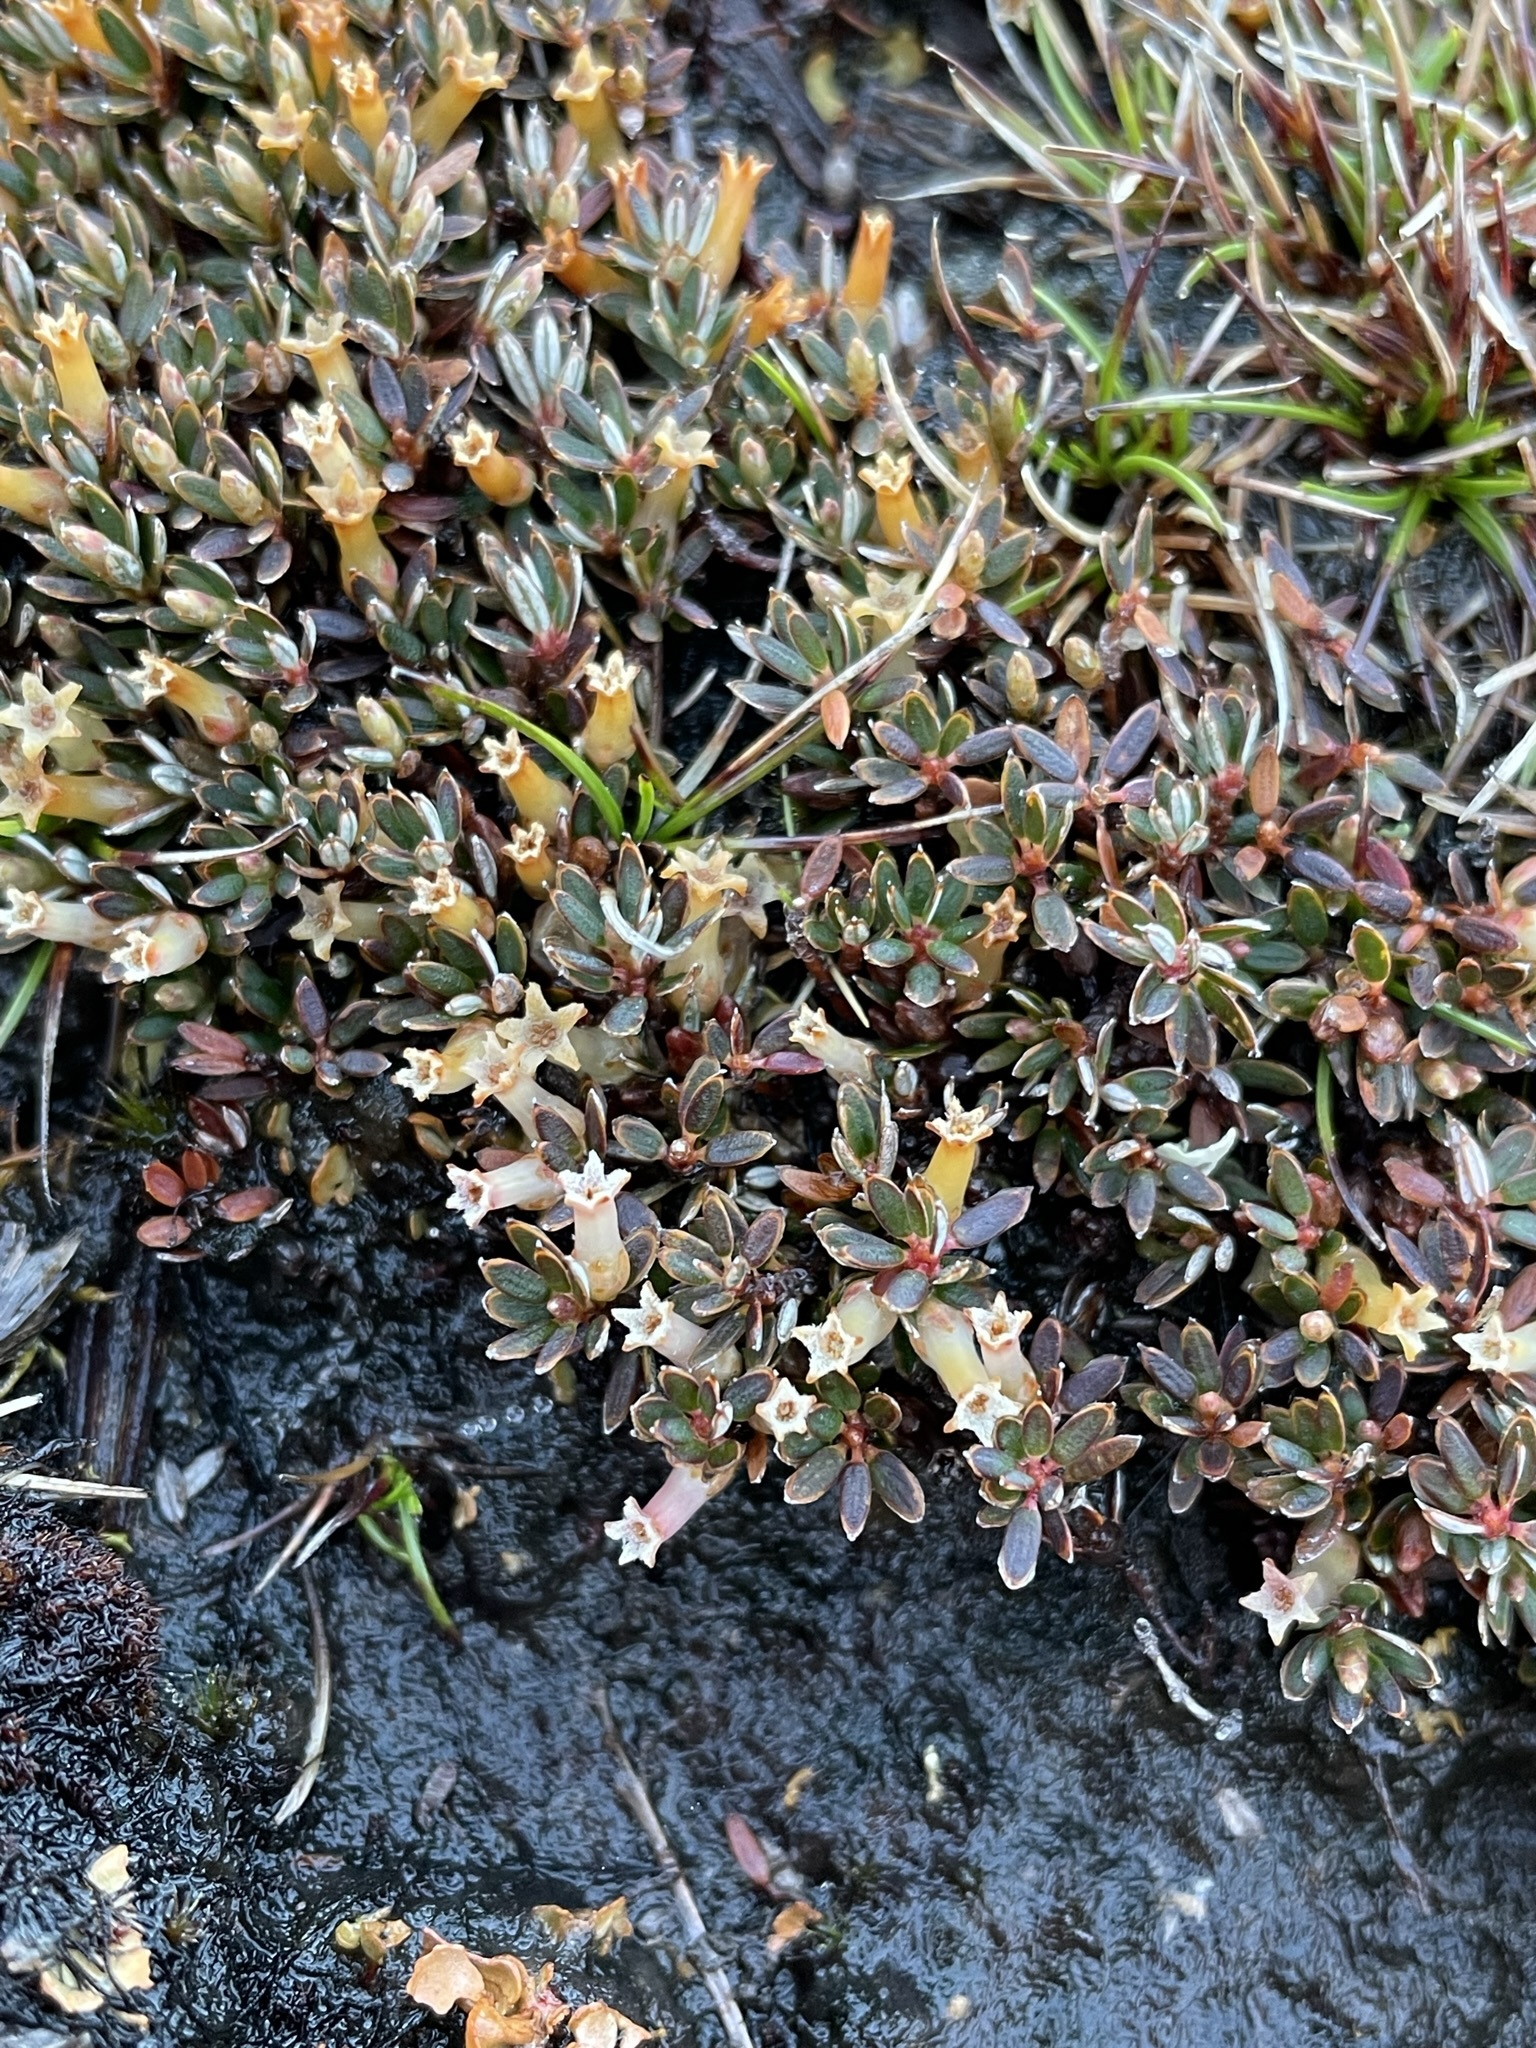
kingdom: Plantae
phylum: Tracheophyta
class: Magnoliopsida
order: Ericales
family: Ericaceae
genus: Montitega
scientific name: Montitega dealbata
